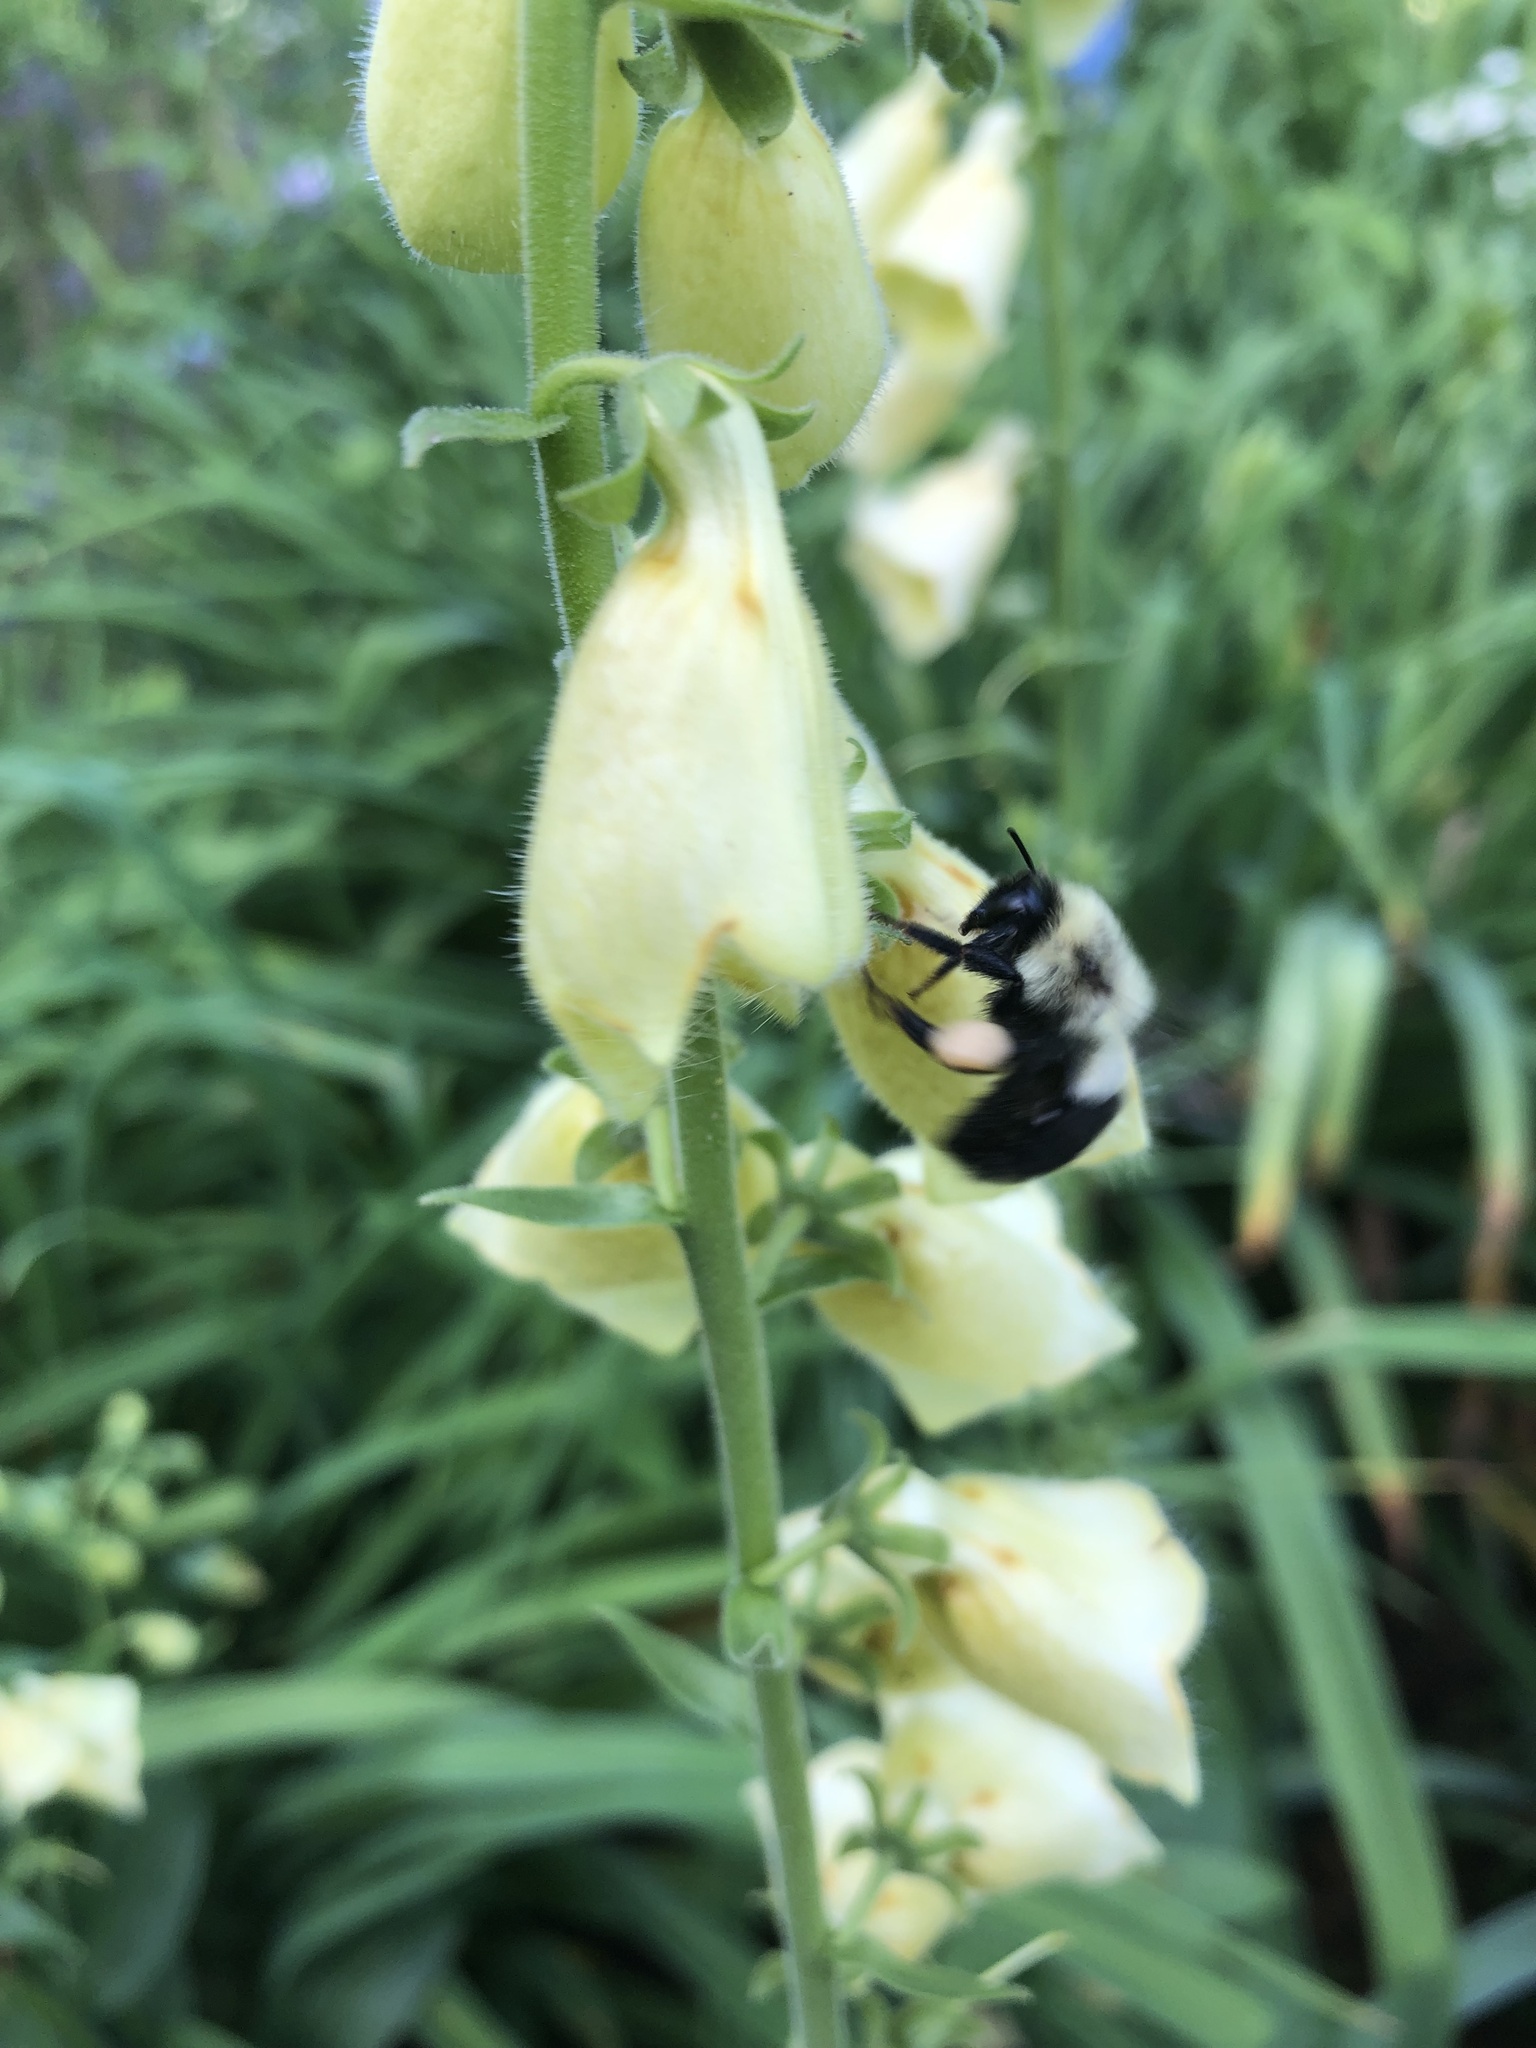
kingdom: Animalia
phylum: Arthropoda
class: Insecta
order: Hymenoptera
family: Apidae
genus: Bombus
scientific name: Bombus impatiens
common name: Common eastern bumble bee
